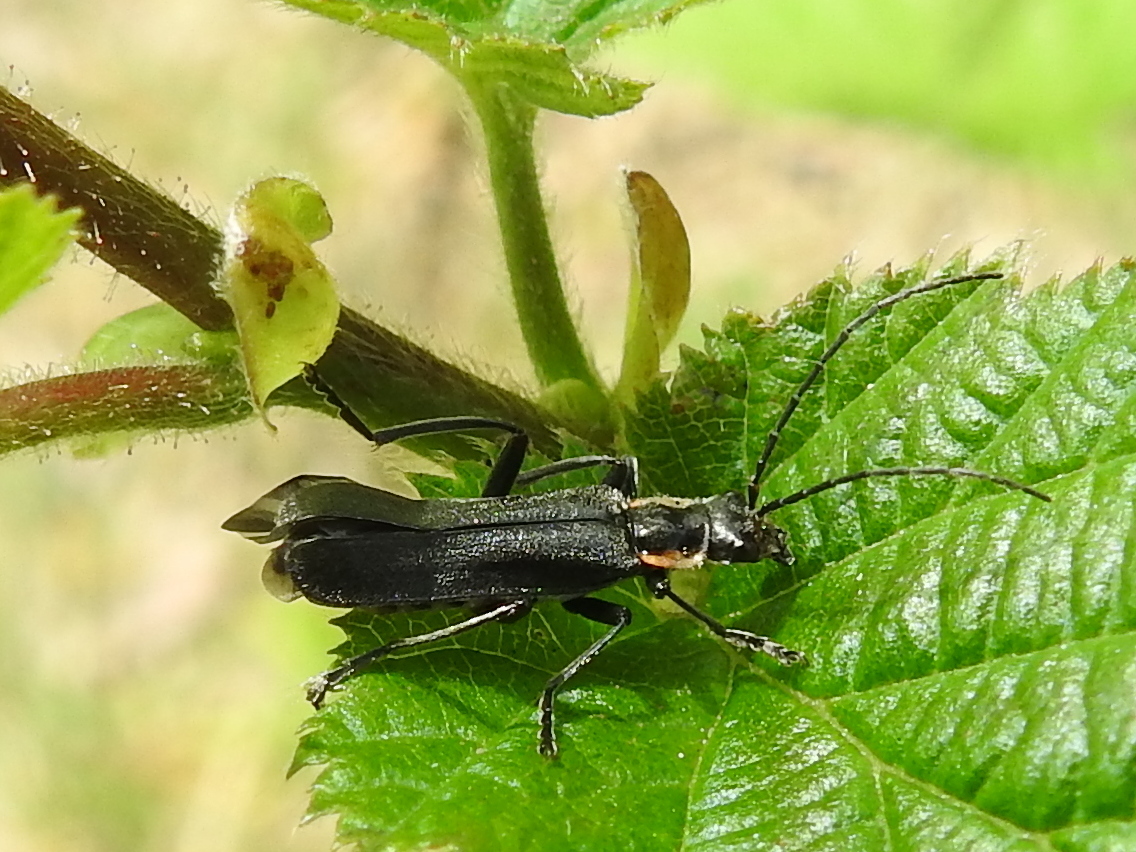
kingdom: Animalia
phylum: Arthropoda
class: Insecta
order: Coleoptera
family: Cantharidae
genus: Cantharis
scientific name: Cantharis obscura
